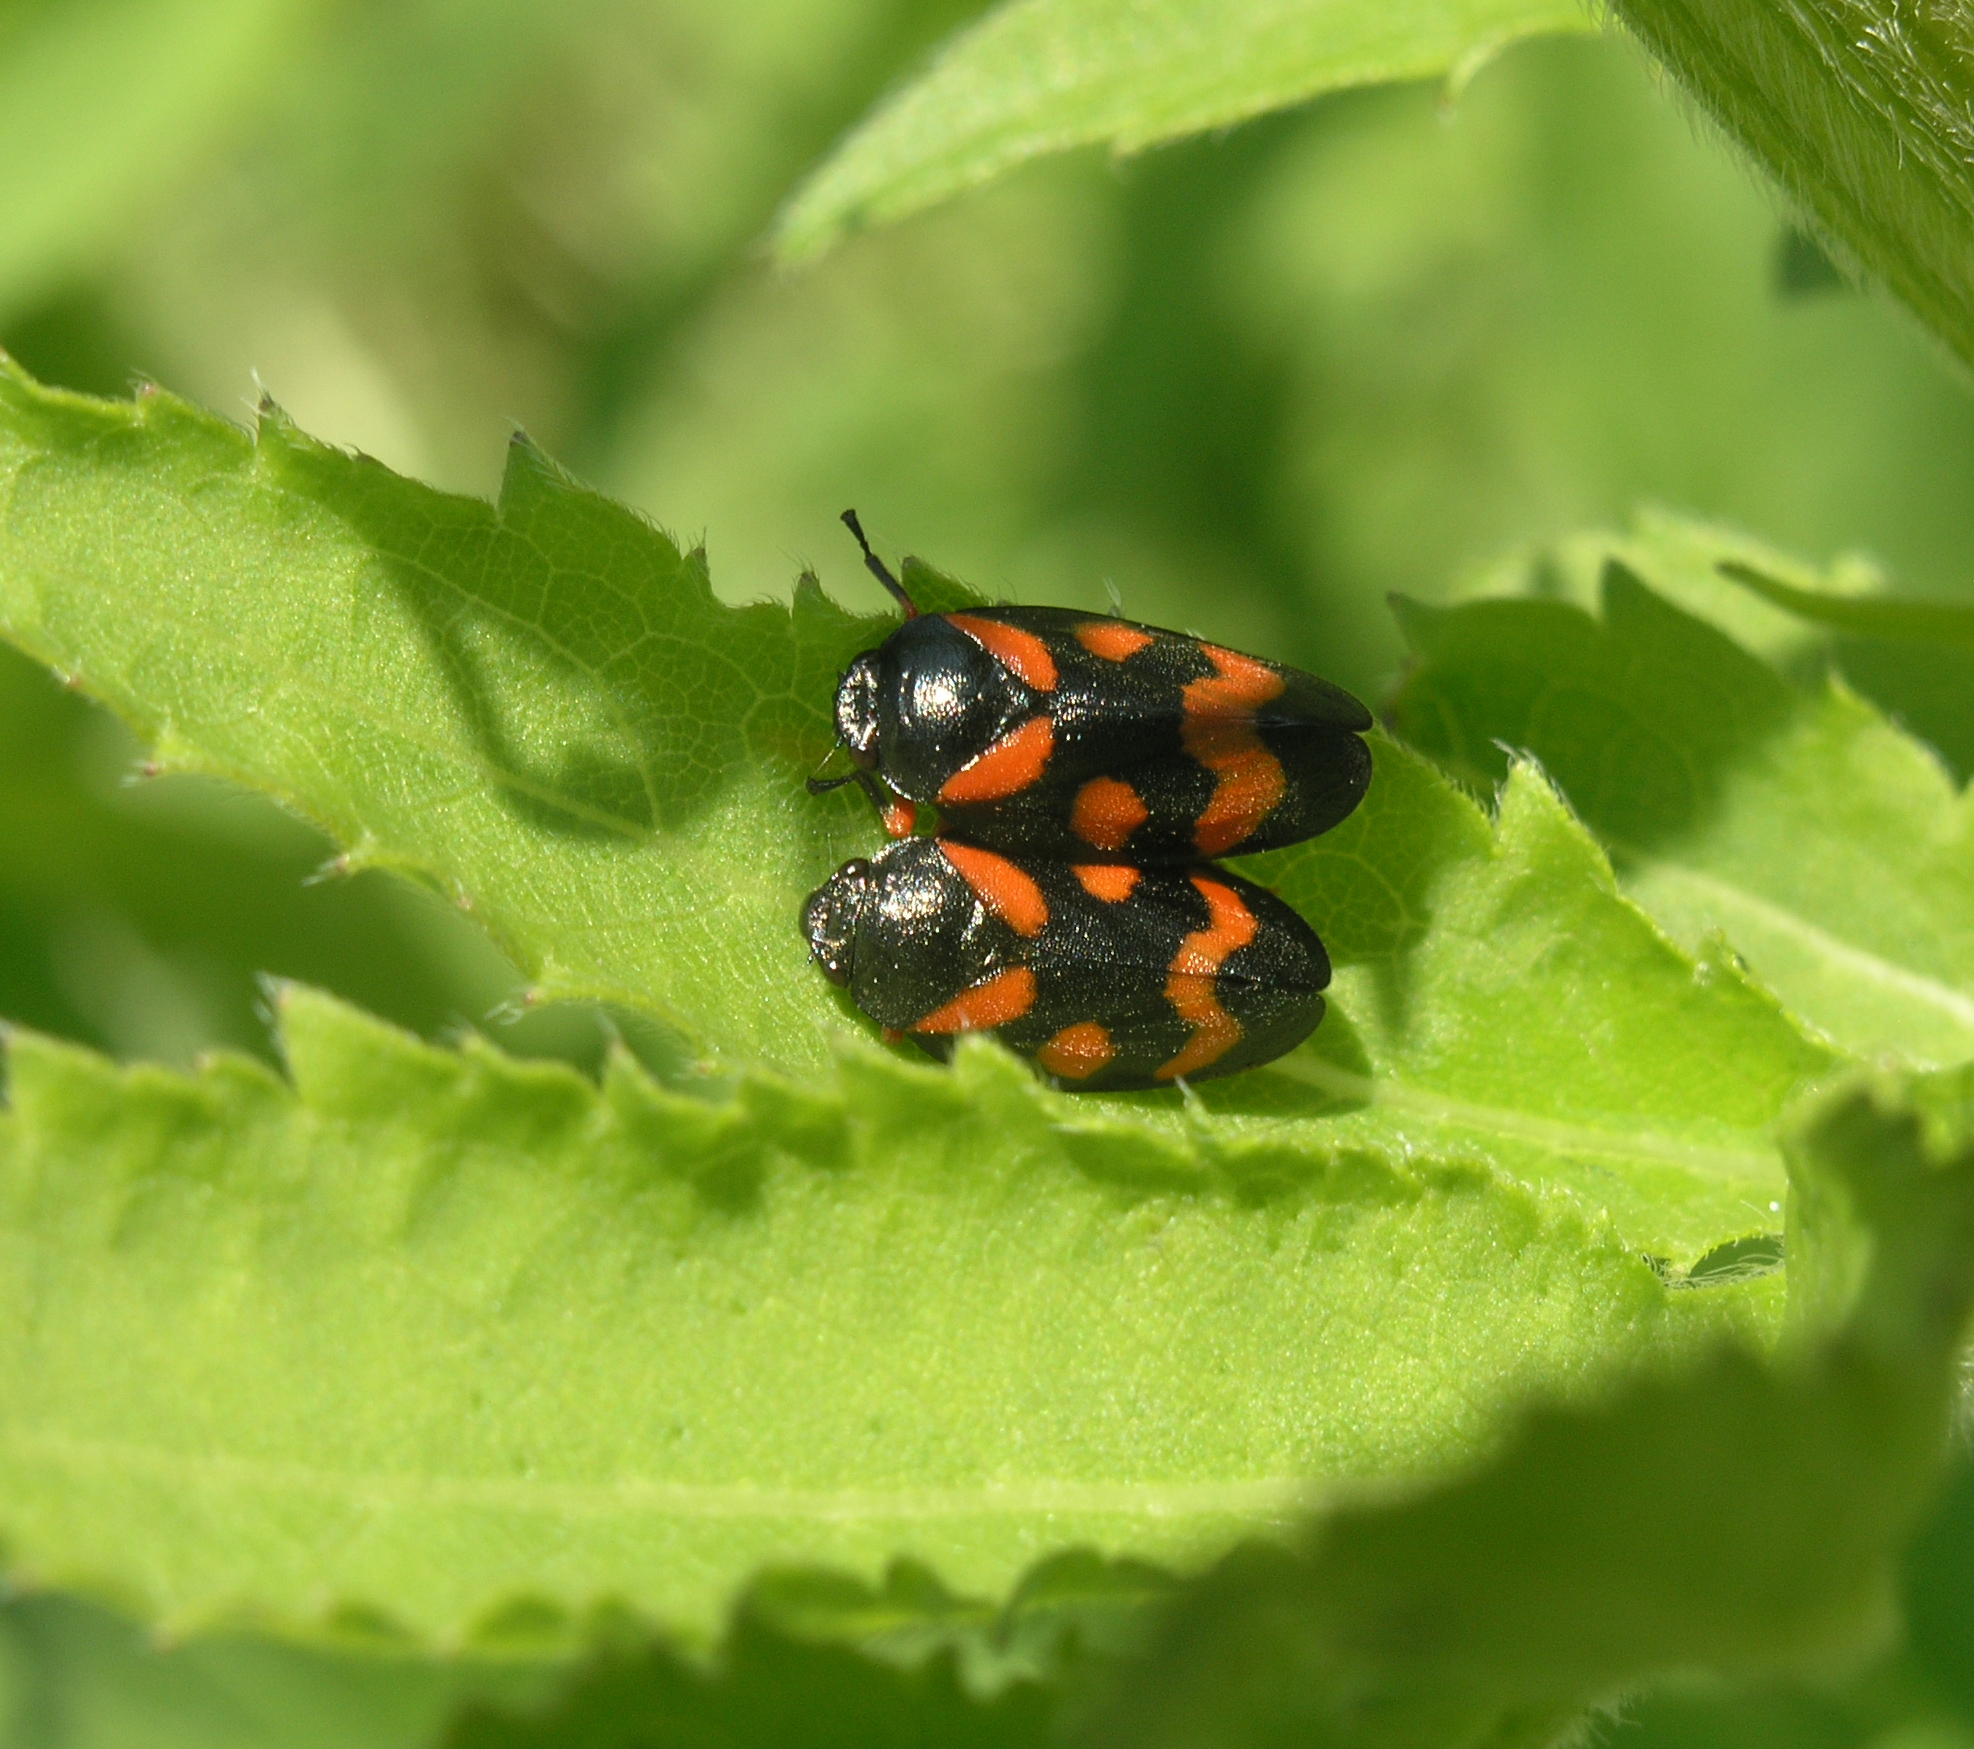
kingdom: Animalia
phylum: Arthropoda
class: Insecta
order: Hemiptera
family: Cercopidae
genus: Cercopis
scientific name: Cercopis intermedia
